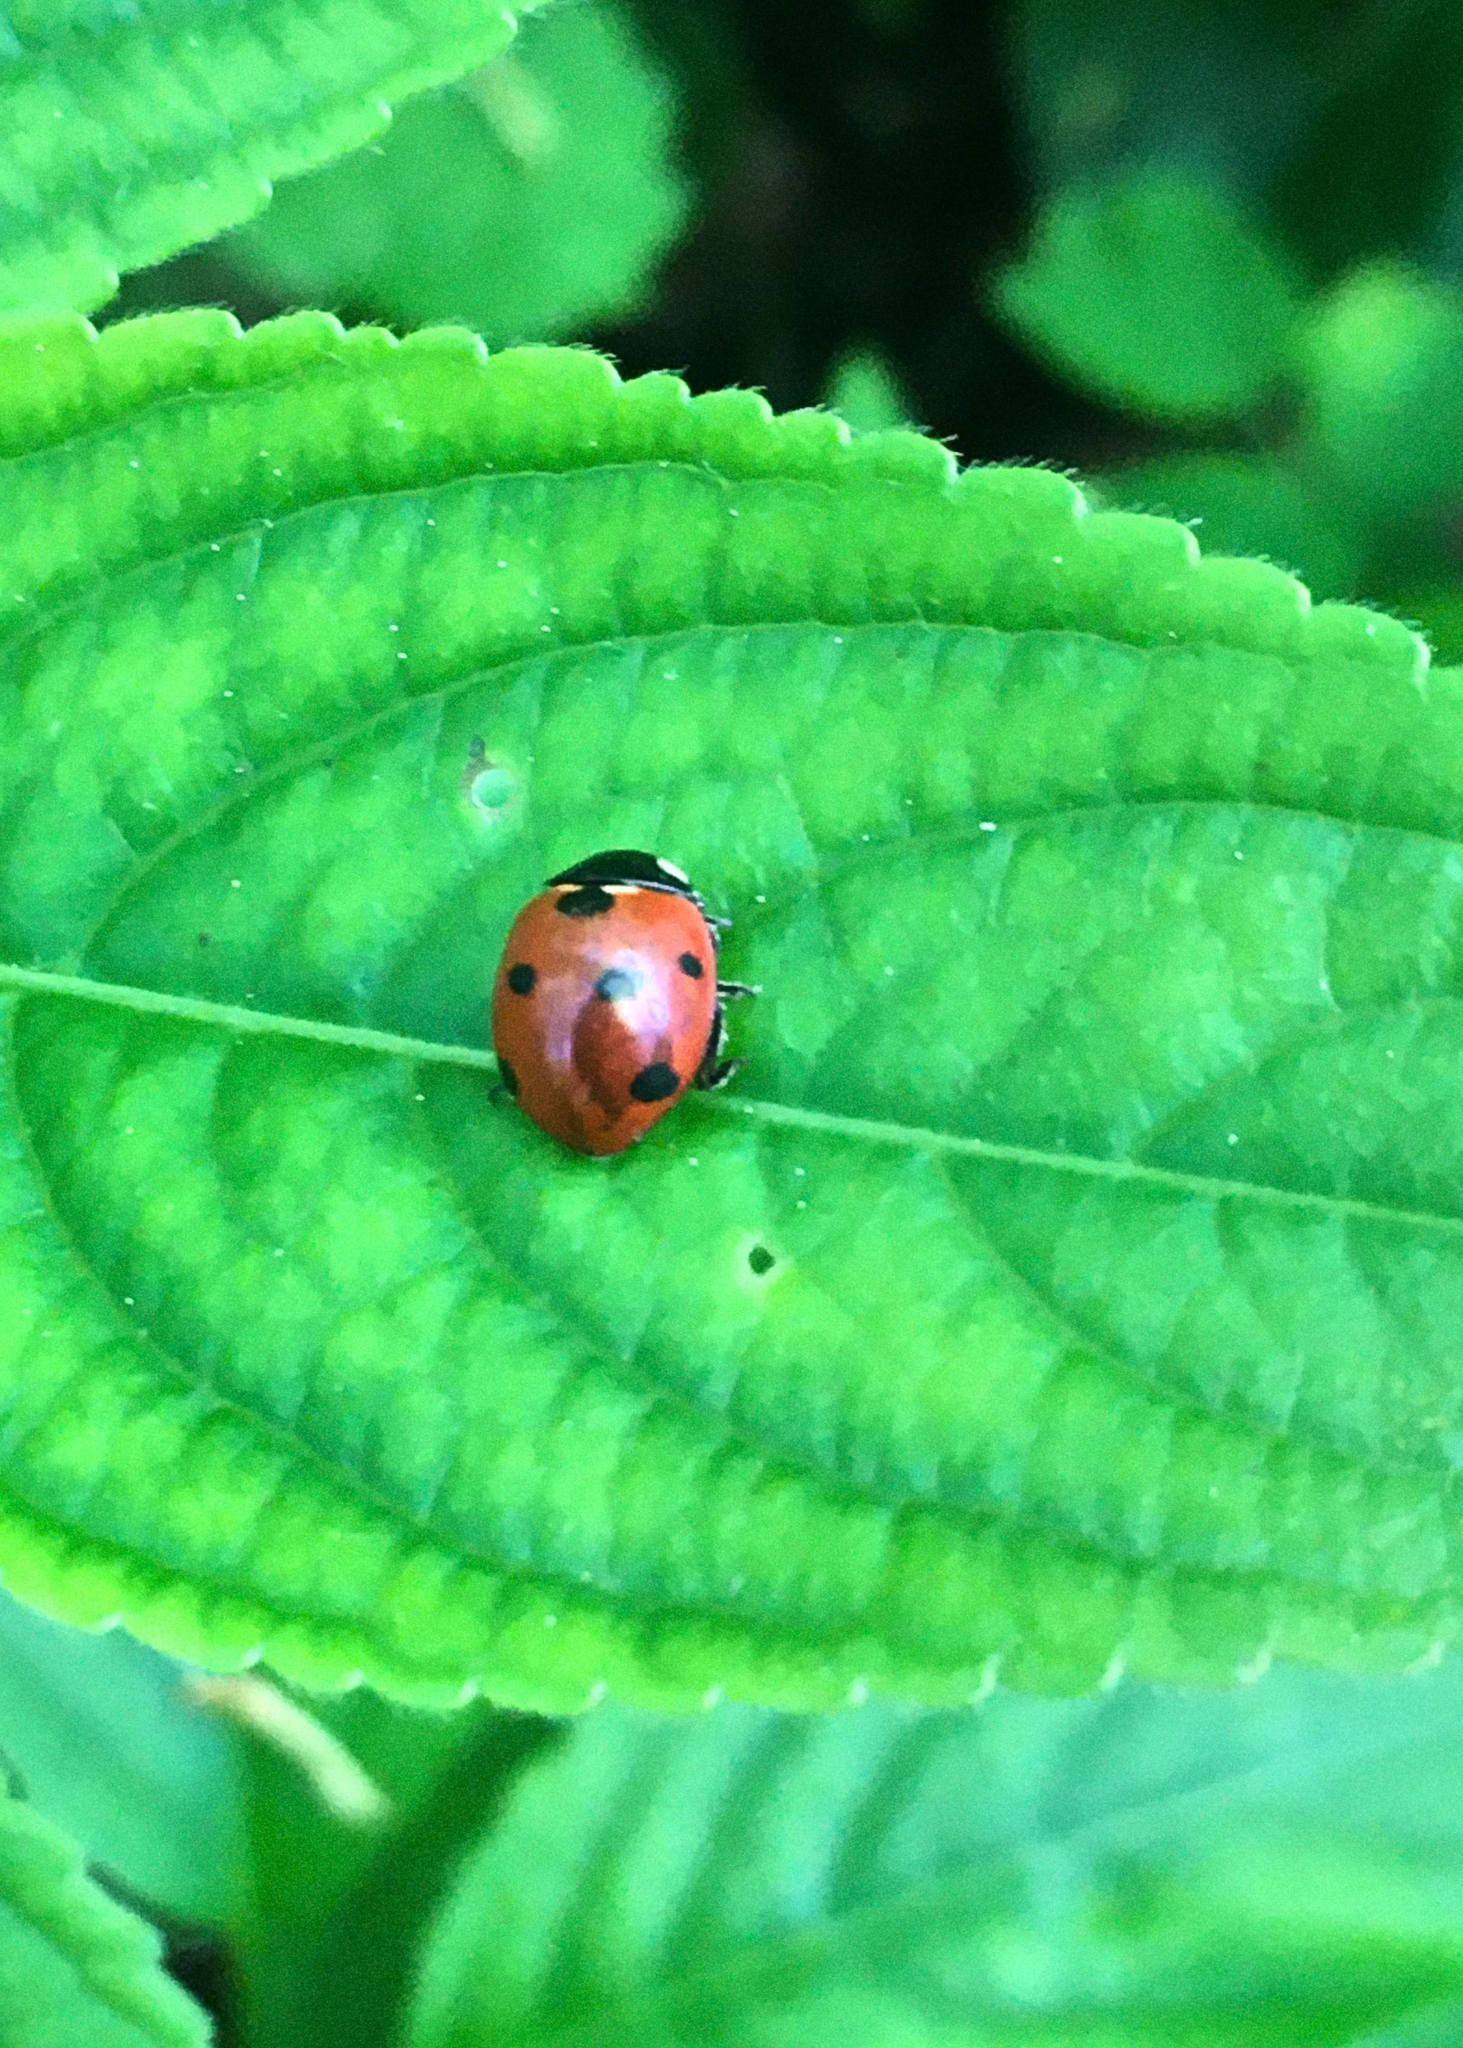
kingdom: Animalia
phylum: Arthropoda
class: Insecta
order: Coleoptera
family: Coccinellidae
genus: Coccinella
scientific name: Coccinella septempunctata
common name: Sevenspotted lady beetle
